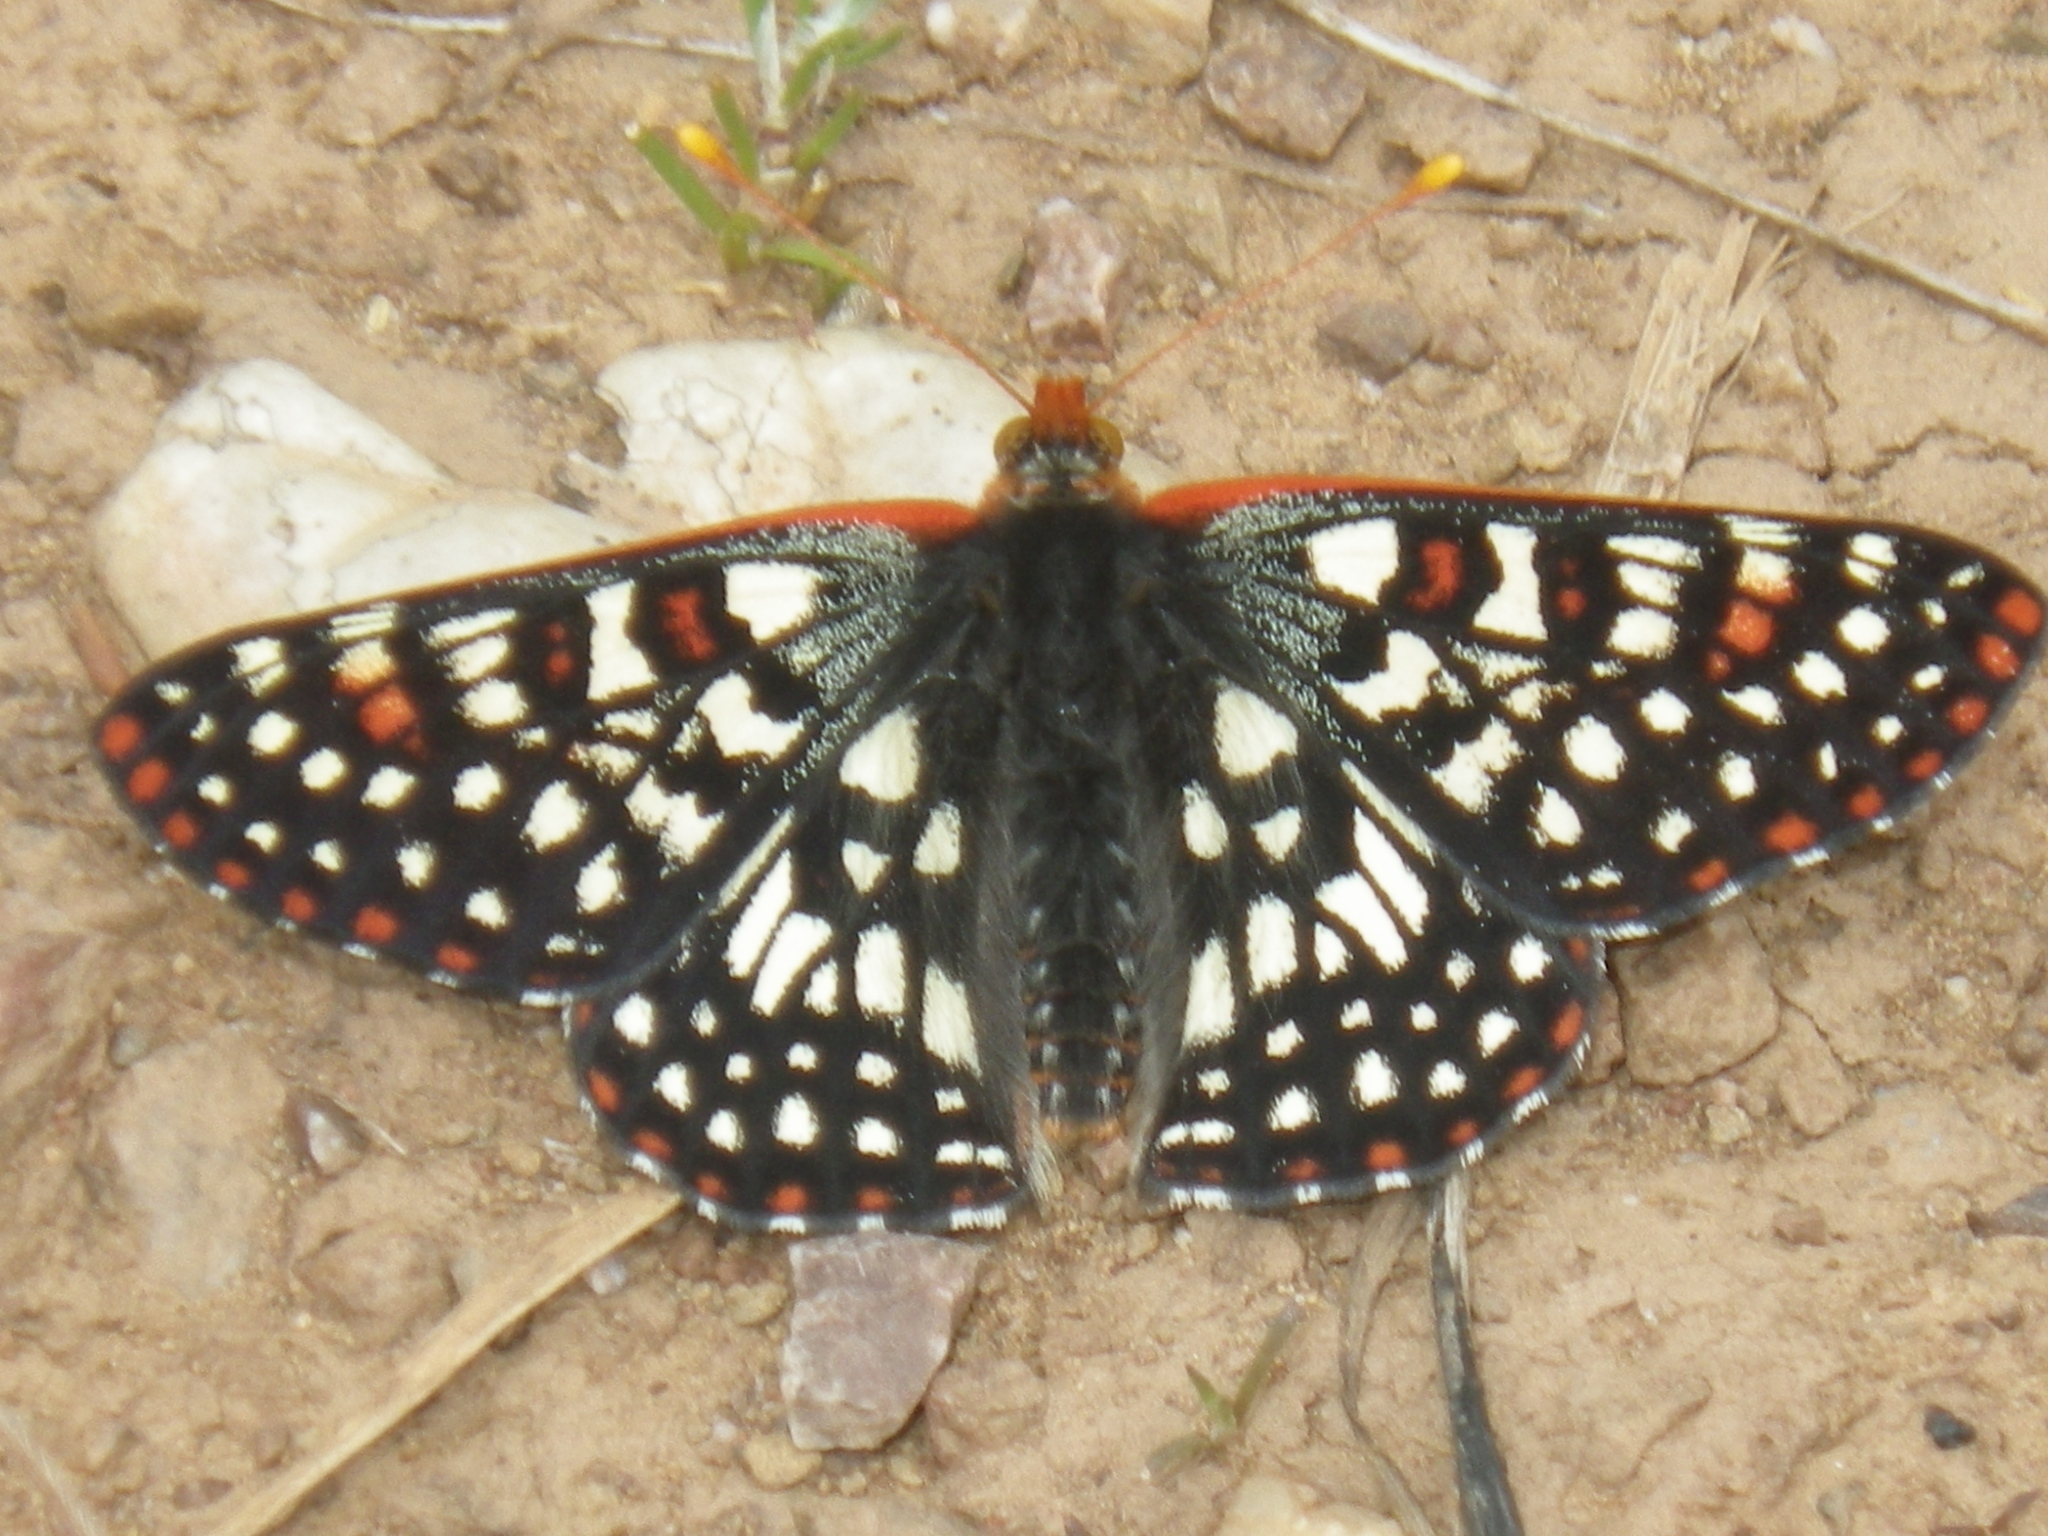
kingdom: Animalia
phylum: Arthropoda
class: Insecta
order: Lepidoptera
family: Nymphalidae
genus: Occidryas
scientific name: Occidryas chalcedona
